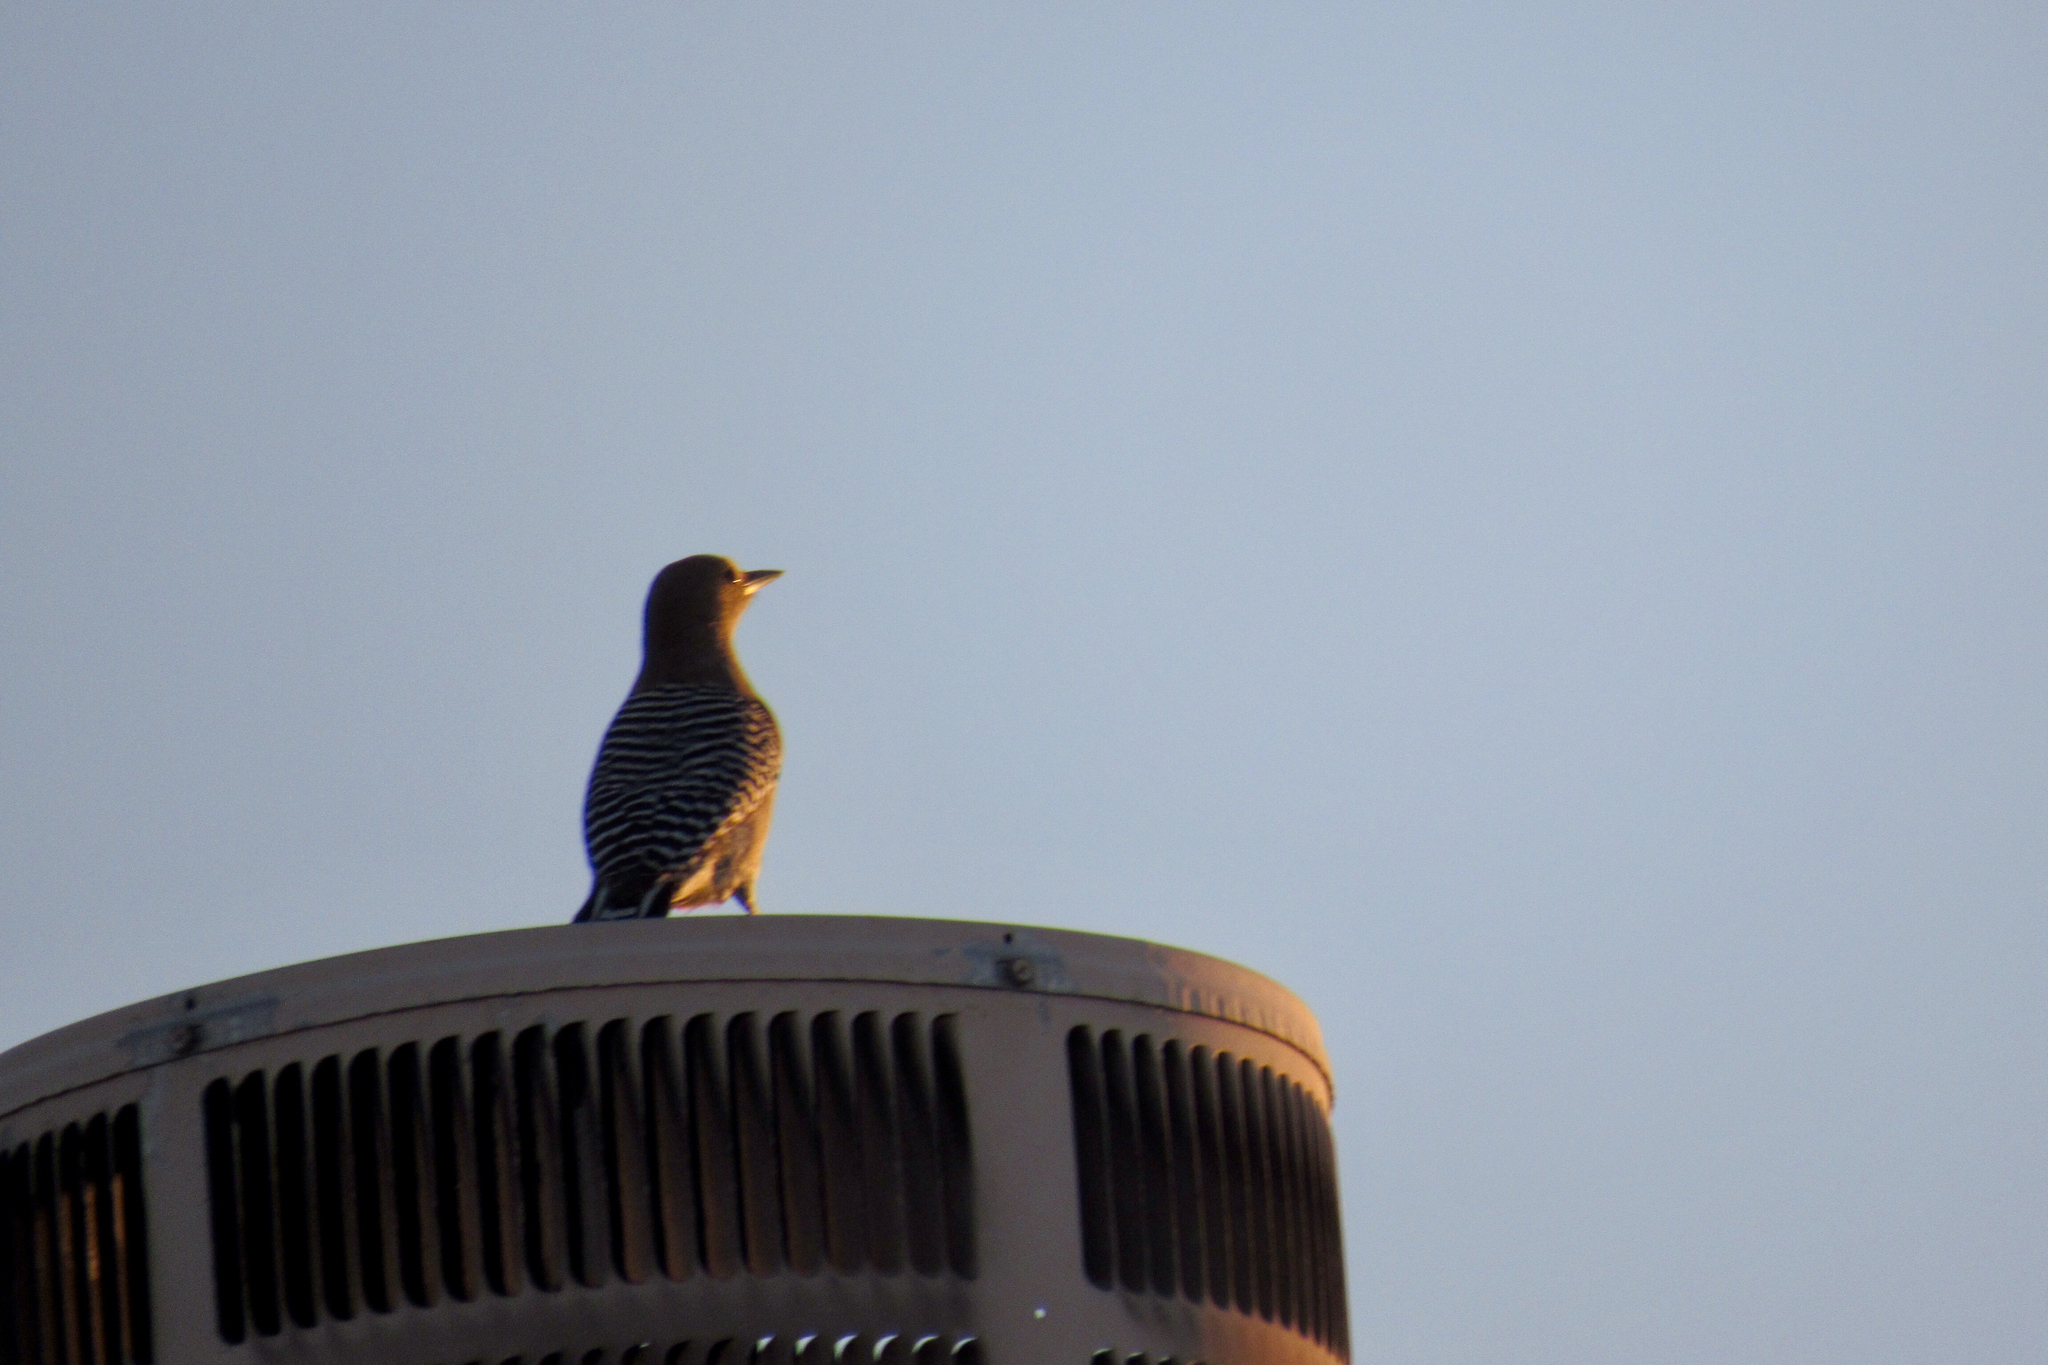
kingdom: Animalia
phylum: Chordata
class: Aves
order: Piciformes
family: Picidae
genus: Melanerpes
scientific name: Melanerpes uropygialis
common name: Gila woodpecker
